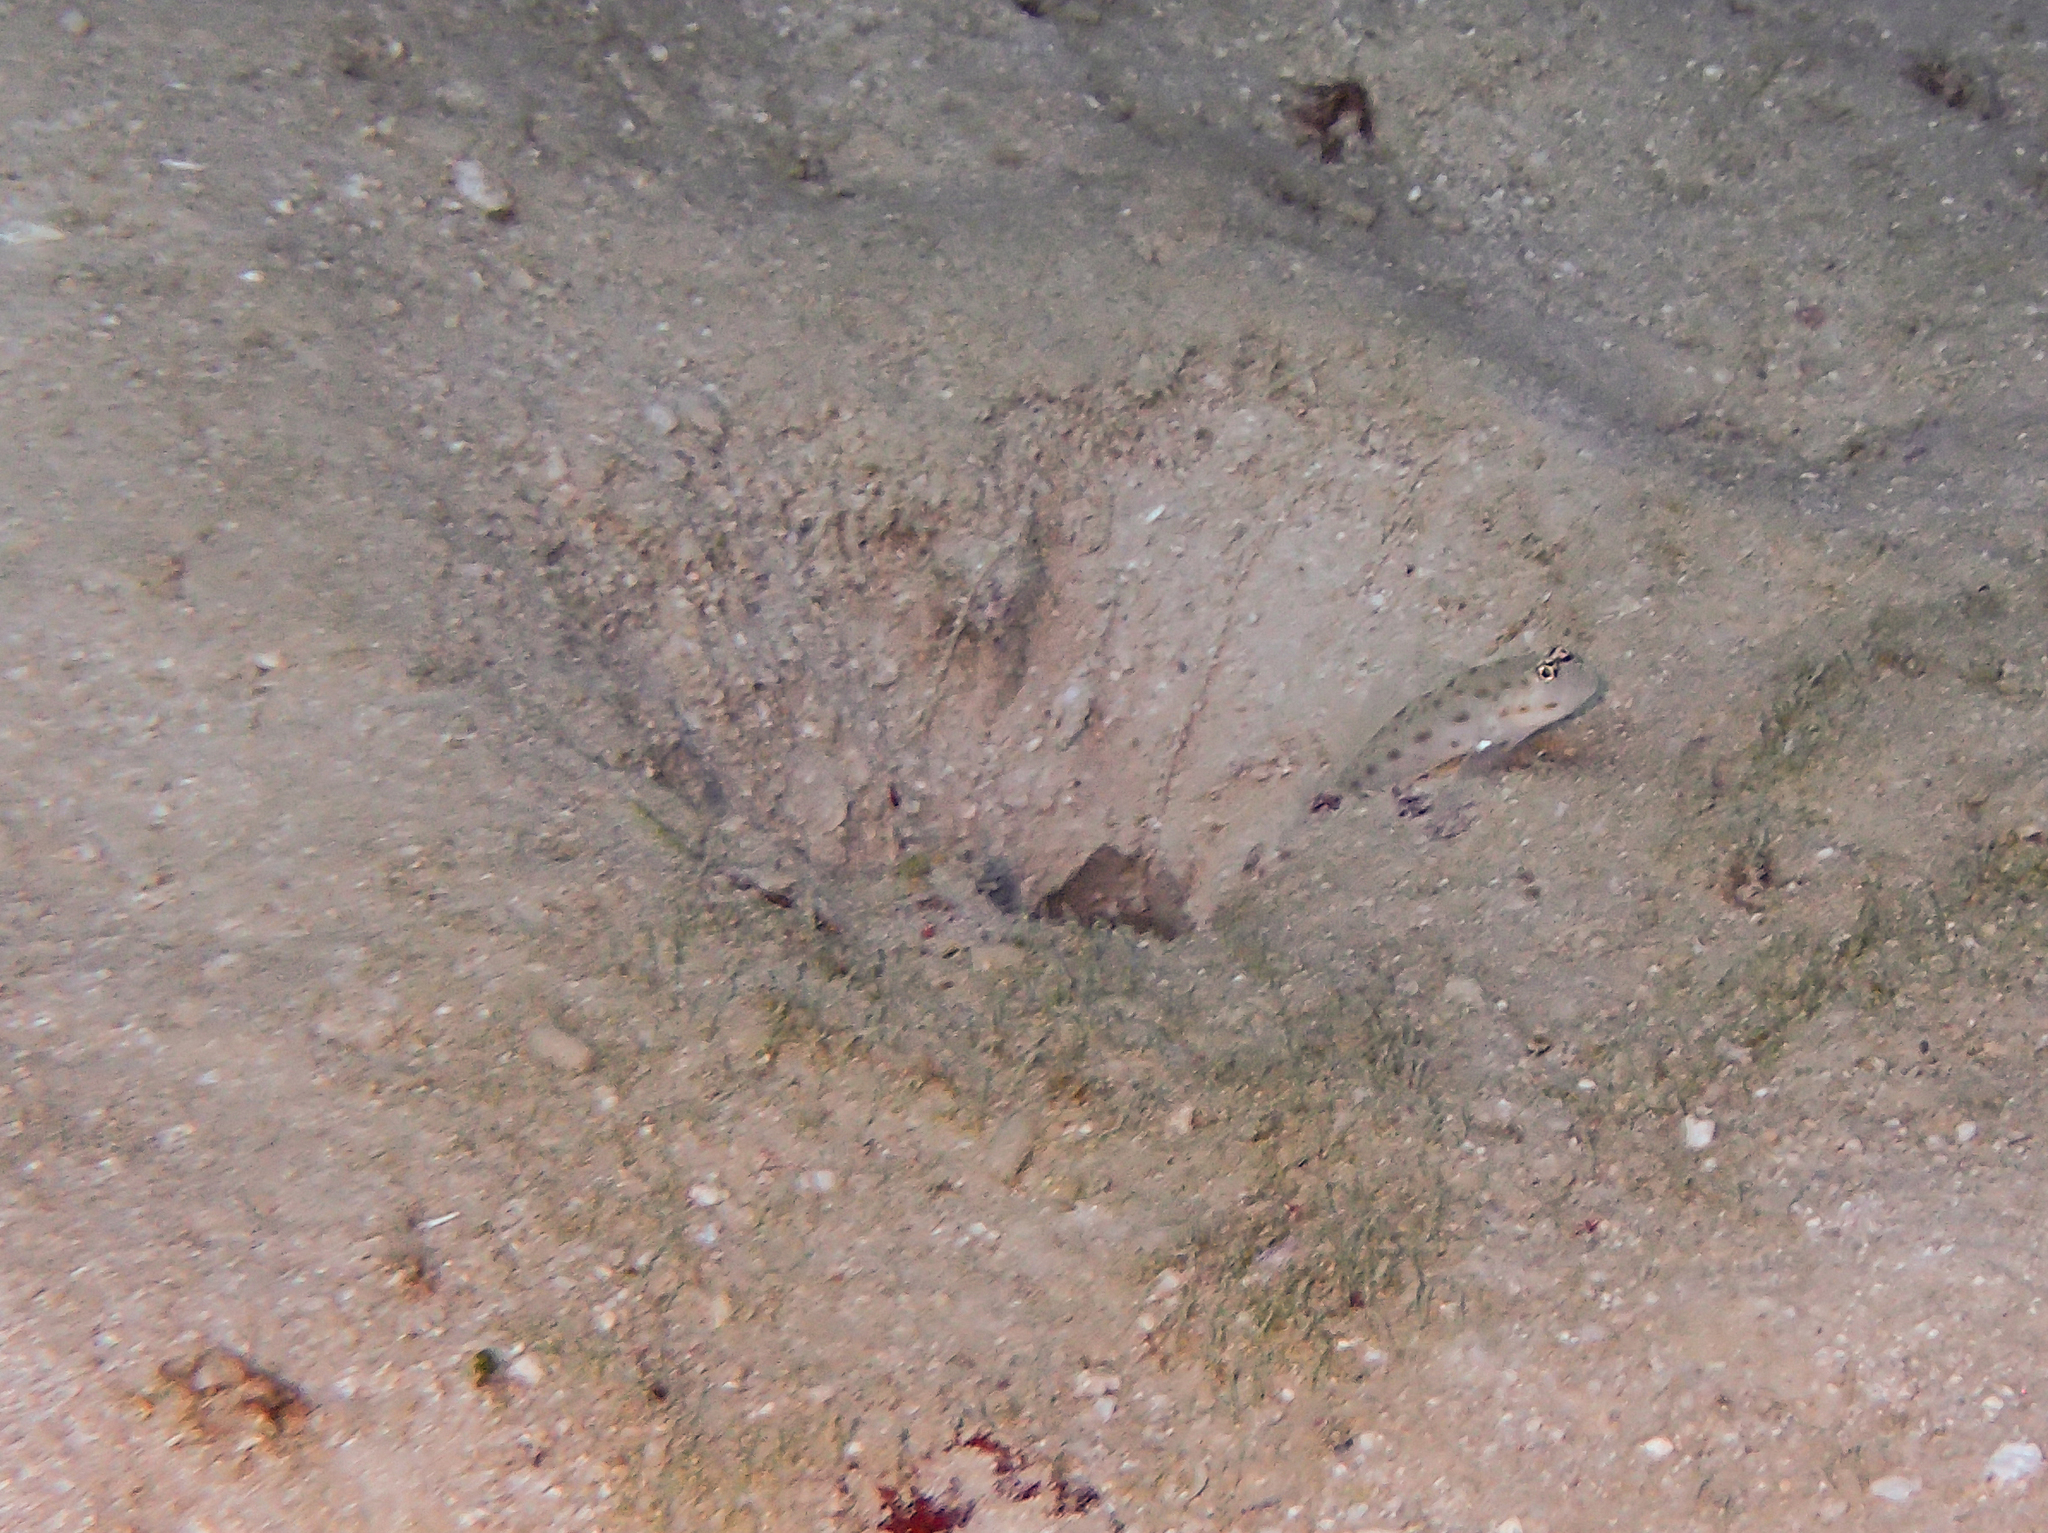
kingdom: Animalia
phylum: Chordata
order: Perciformes
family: Gobiidae
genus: Ctenogobiops
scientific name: Ctenogobiops mitodes
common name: Thread shrimpgoby
